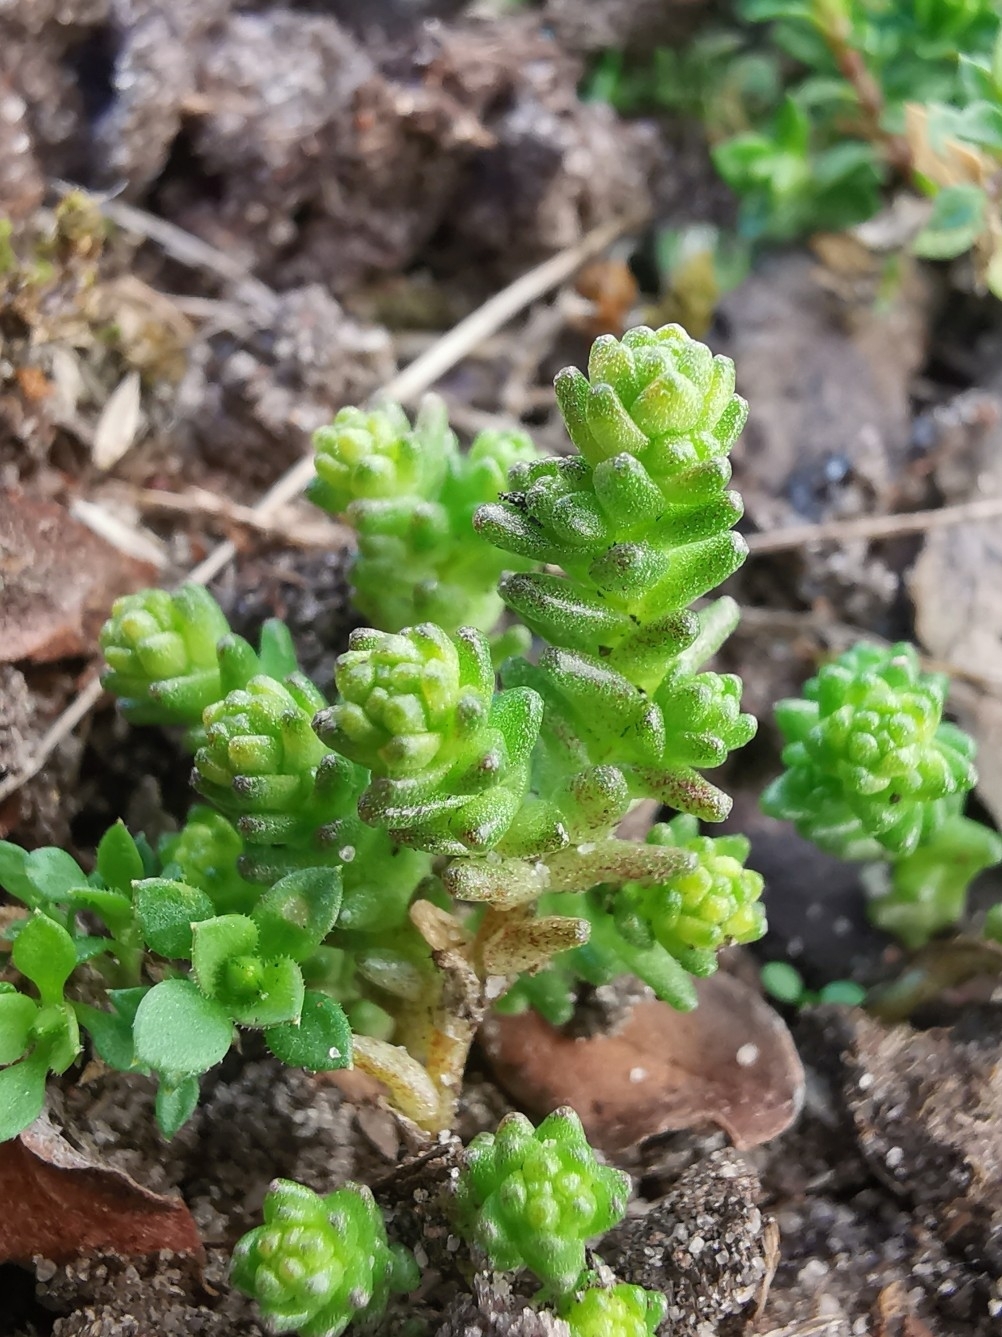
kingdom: Plantae
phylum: Tracheophyta
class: Magnoliopsida
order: Saxifragales
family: Crassulaceae
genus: Sedum
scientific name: Sedum acre
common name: Biting stonecrop
